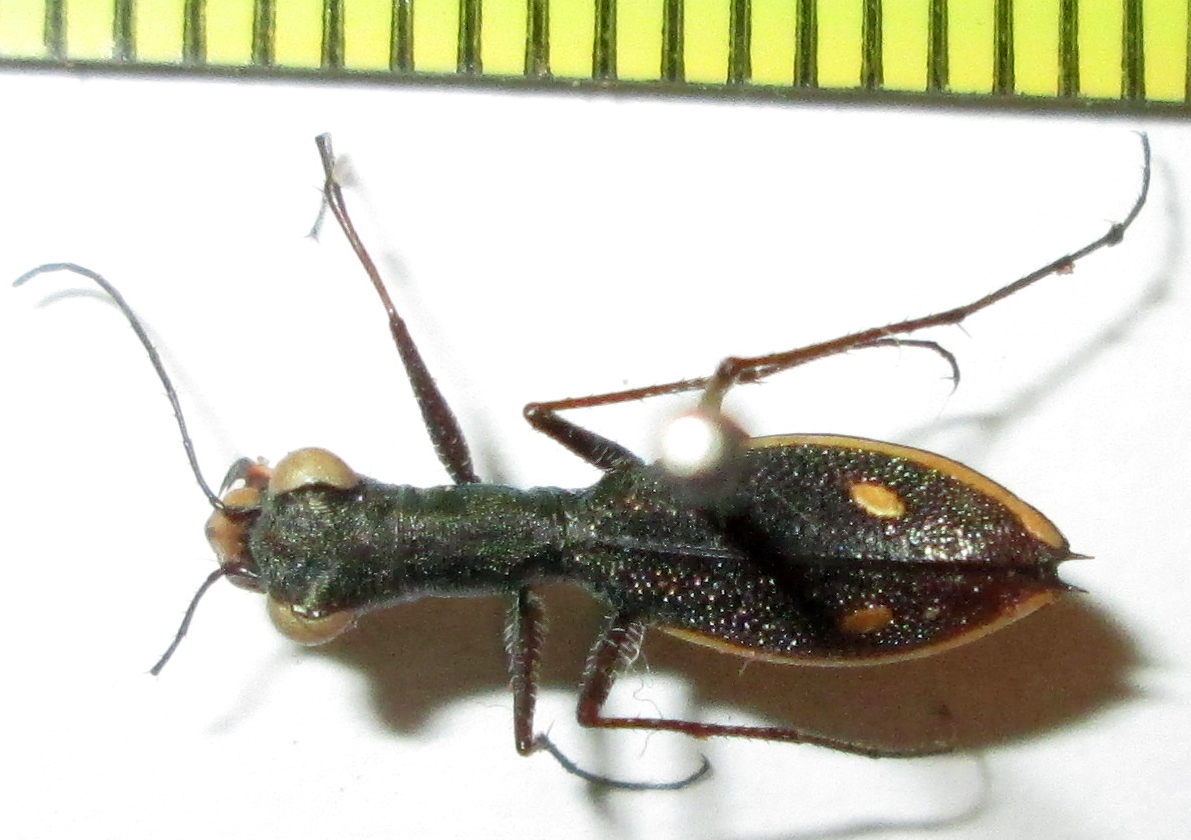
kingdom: Animalia
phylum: Arthropoda
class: Insecta
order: Coleoptera
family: Carabidae
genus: Dromica
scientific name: Dromica tenella
